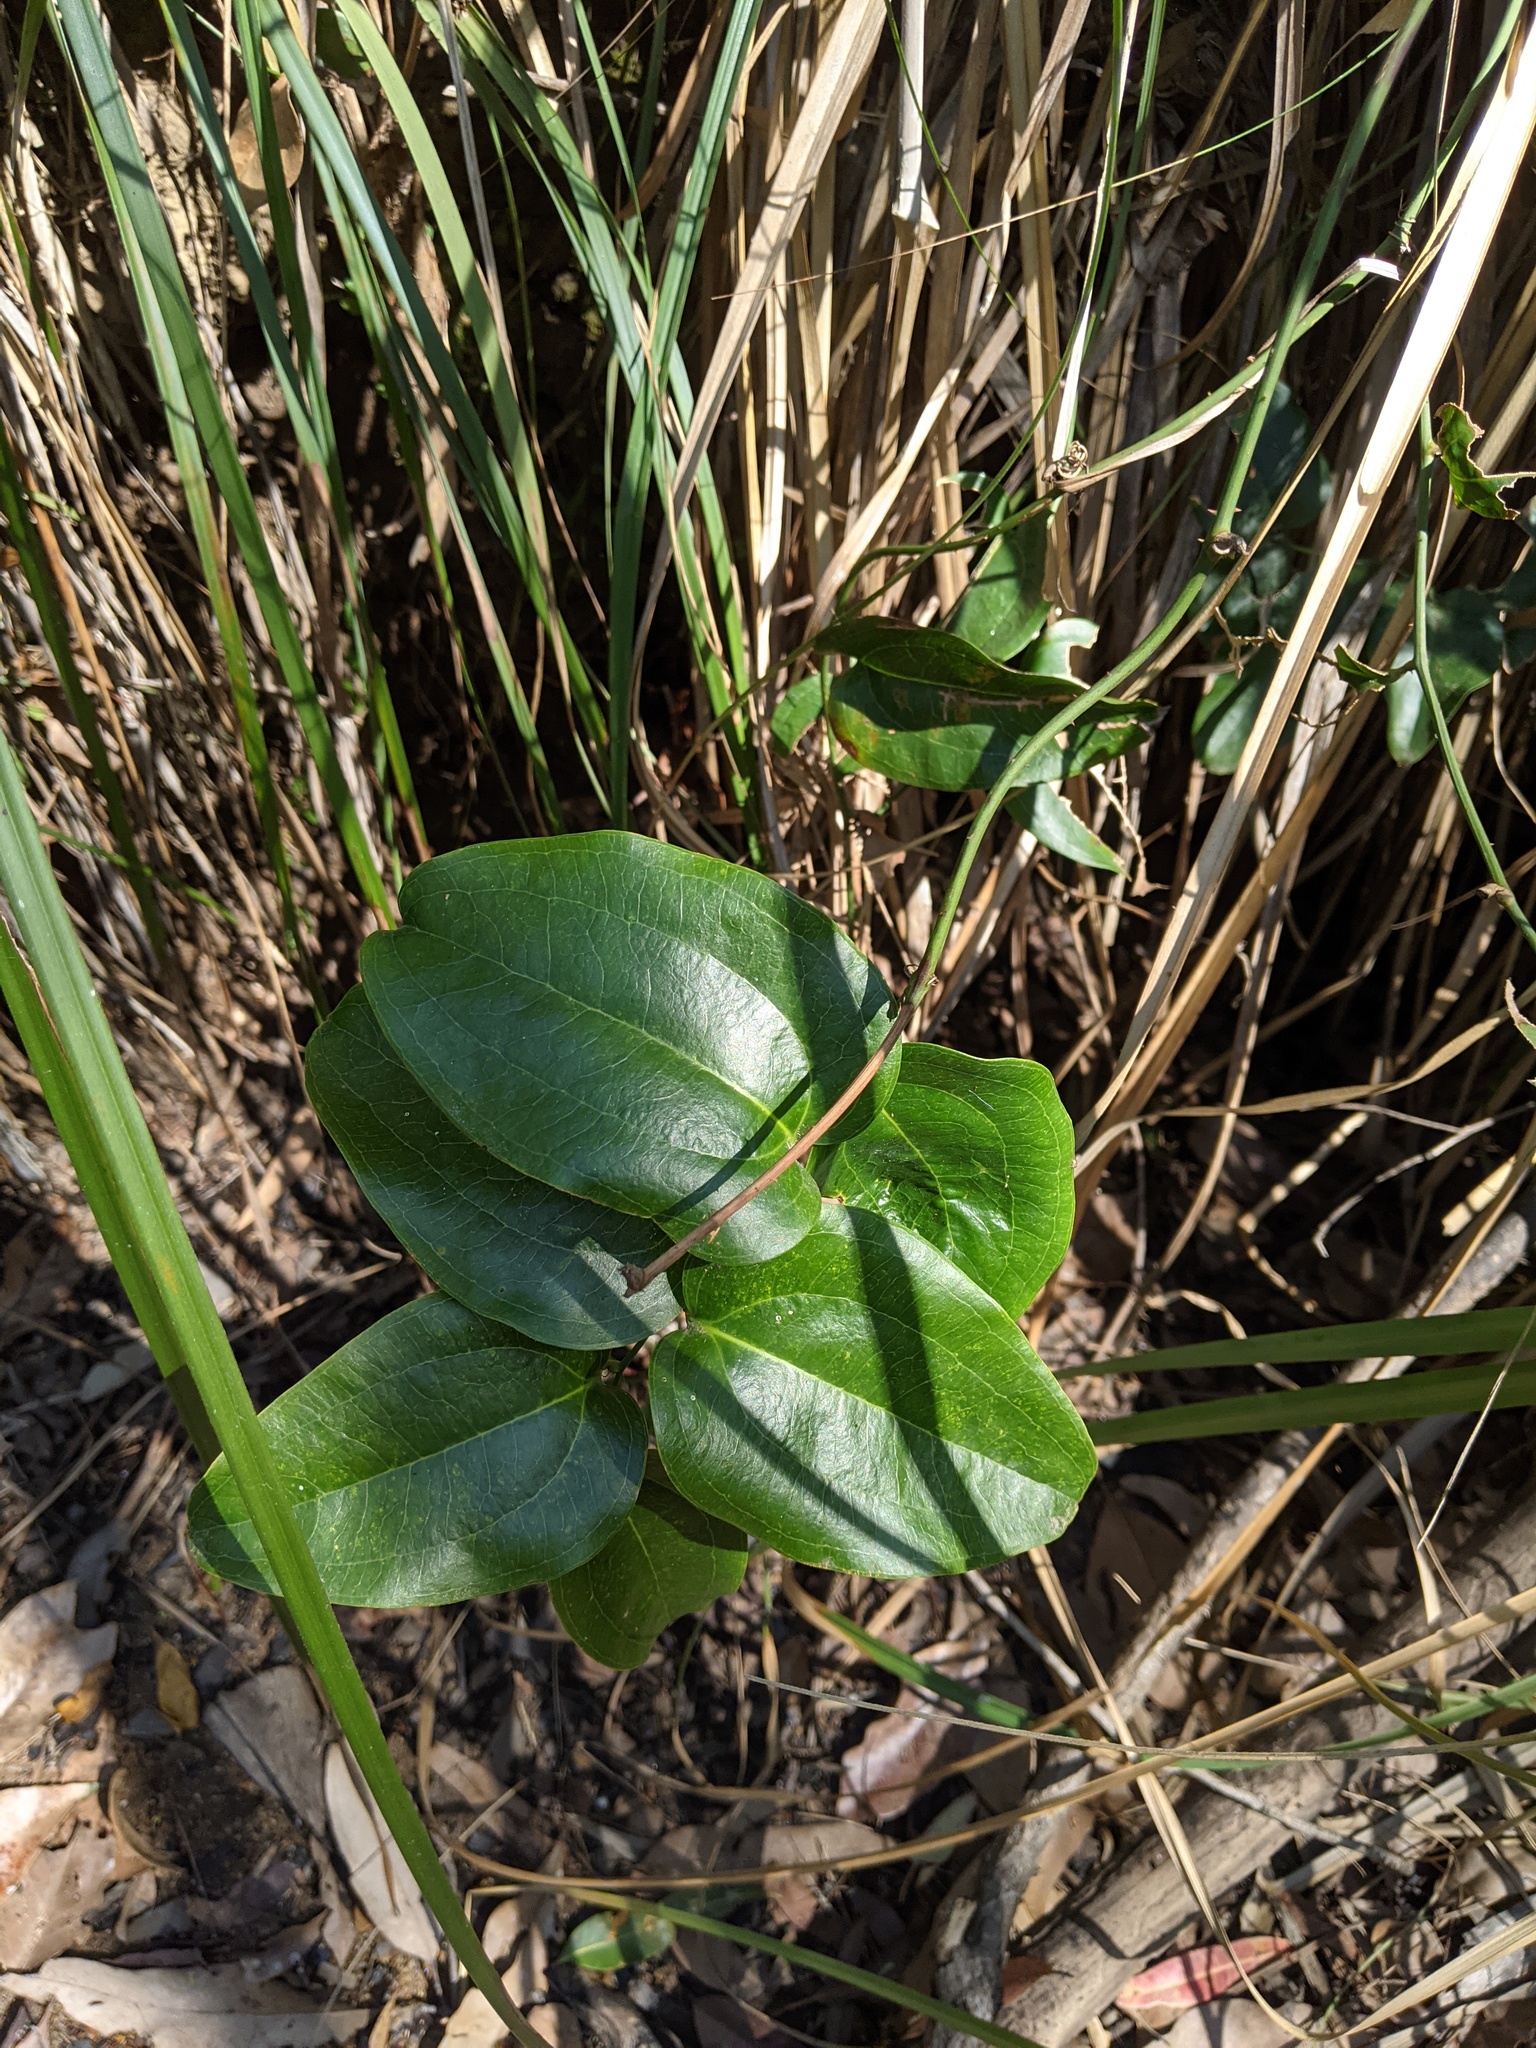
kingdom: Plantae
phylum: Tracheophyta
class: Liliopsida
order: Liliales
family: Smilacaceae
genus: Smilax
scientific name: Smilax australis
